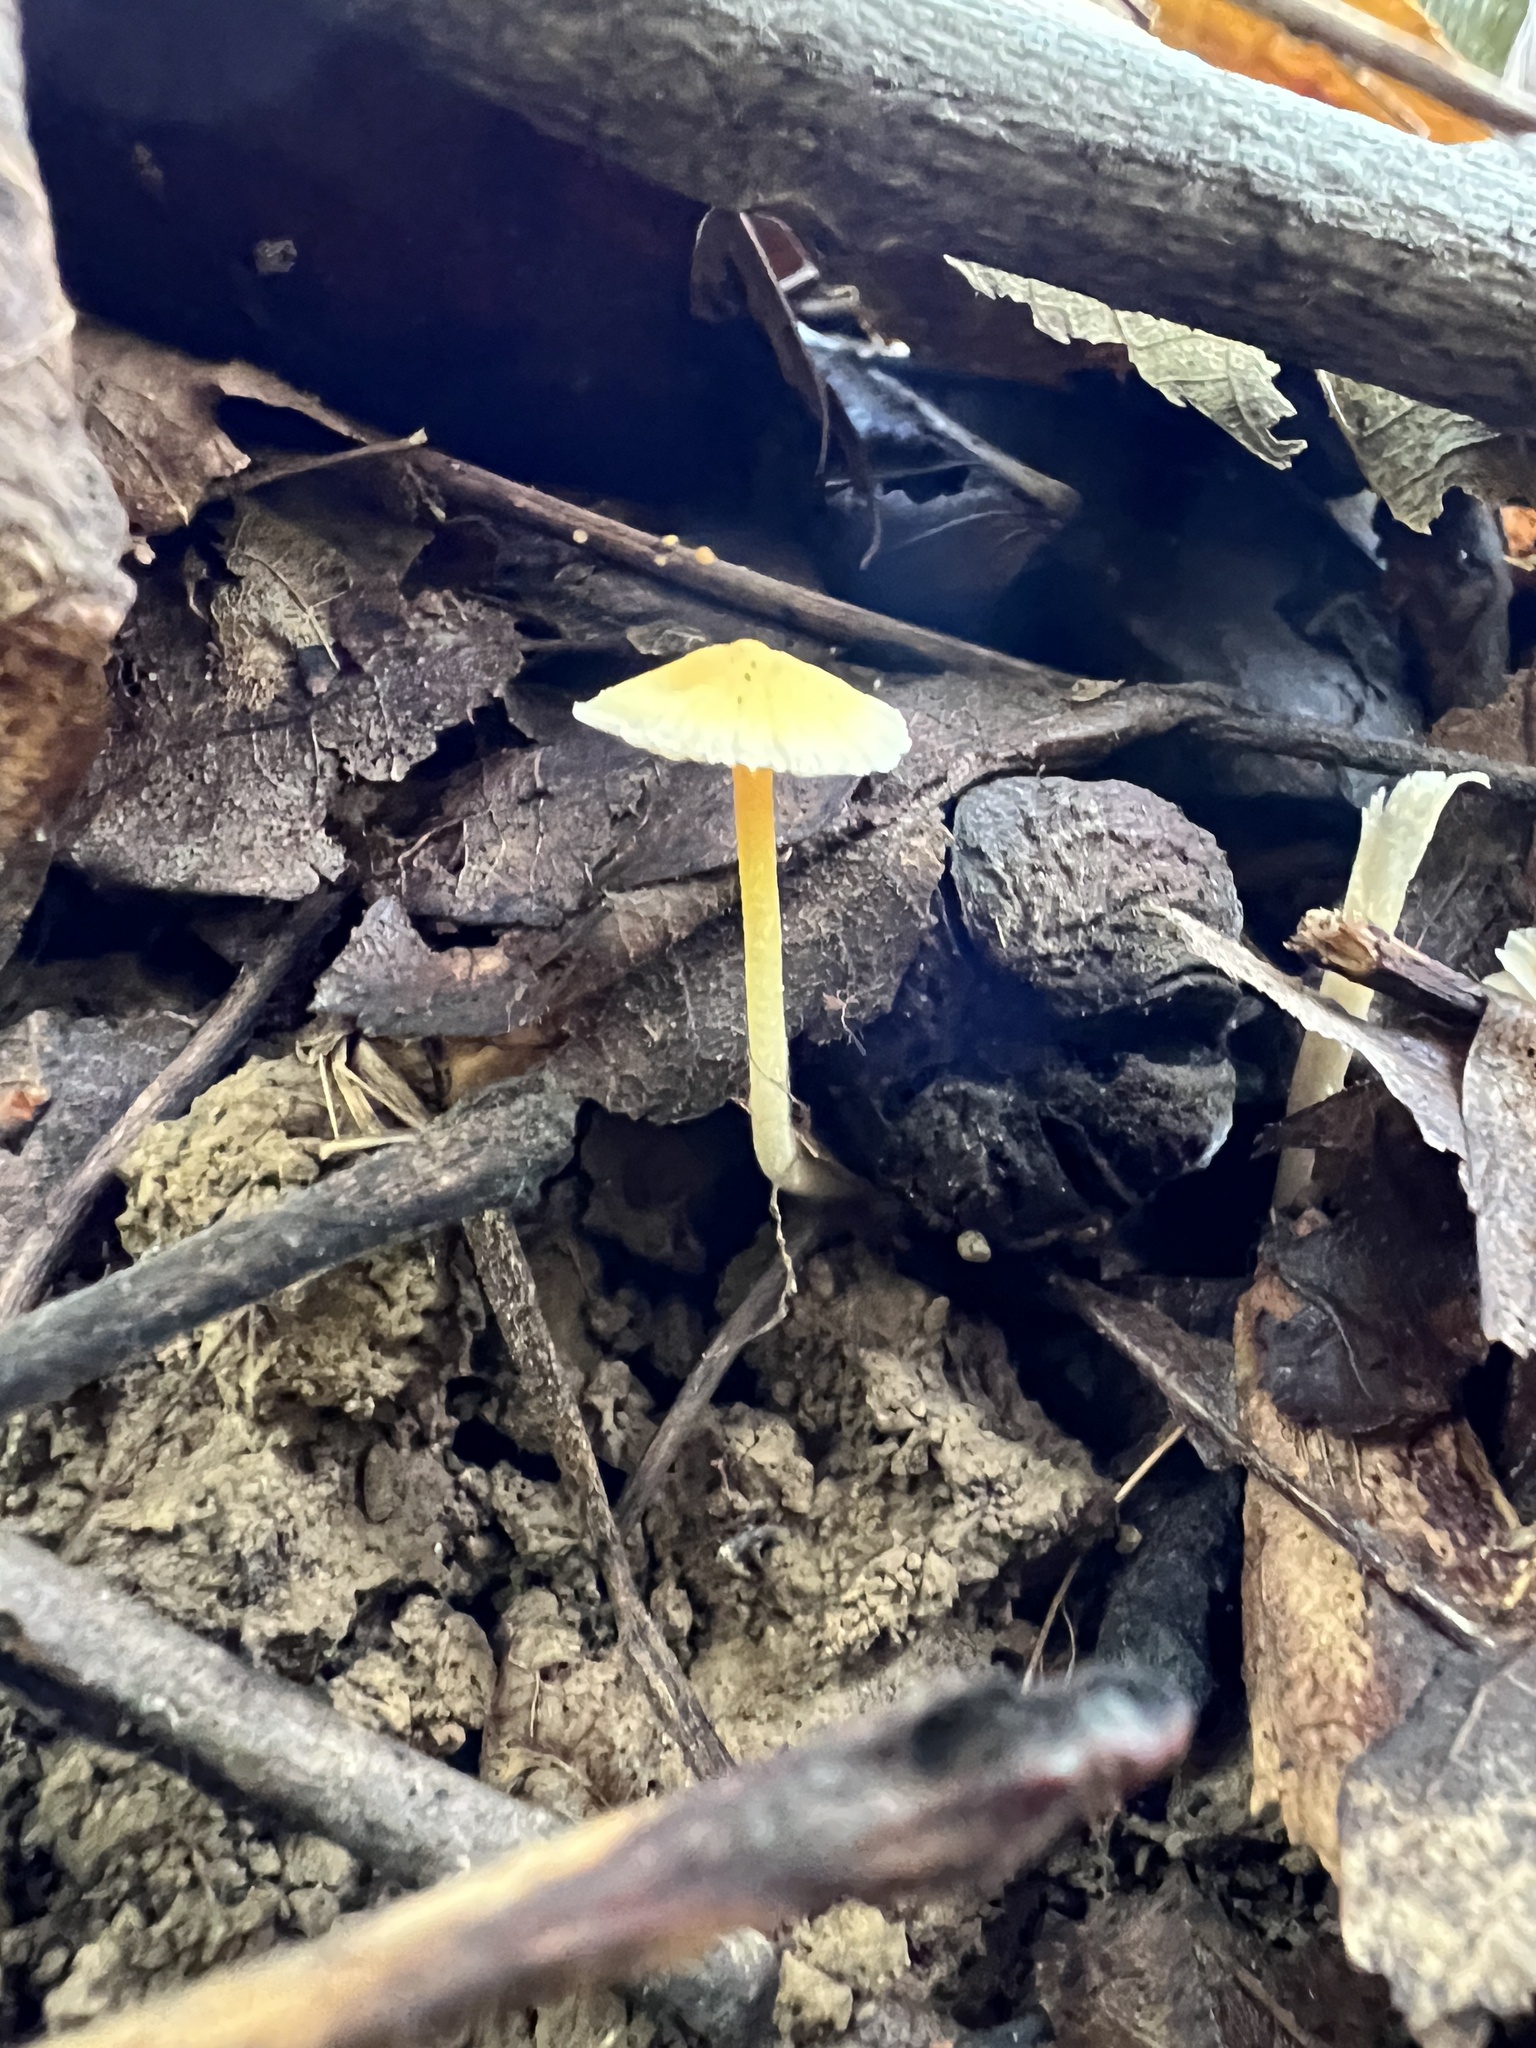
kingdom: Fungi
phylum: Basidiomycota
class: Agaricomycetes
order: Agaricales
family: Mycenaceae
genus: Mycena
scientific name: Mycena crocea
